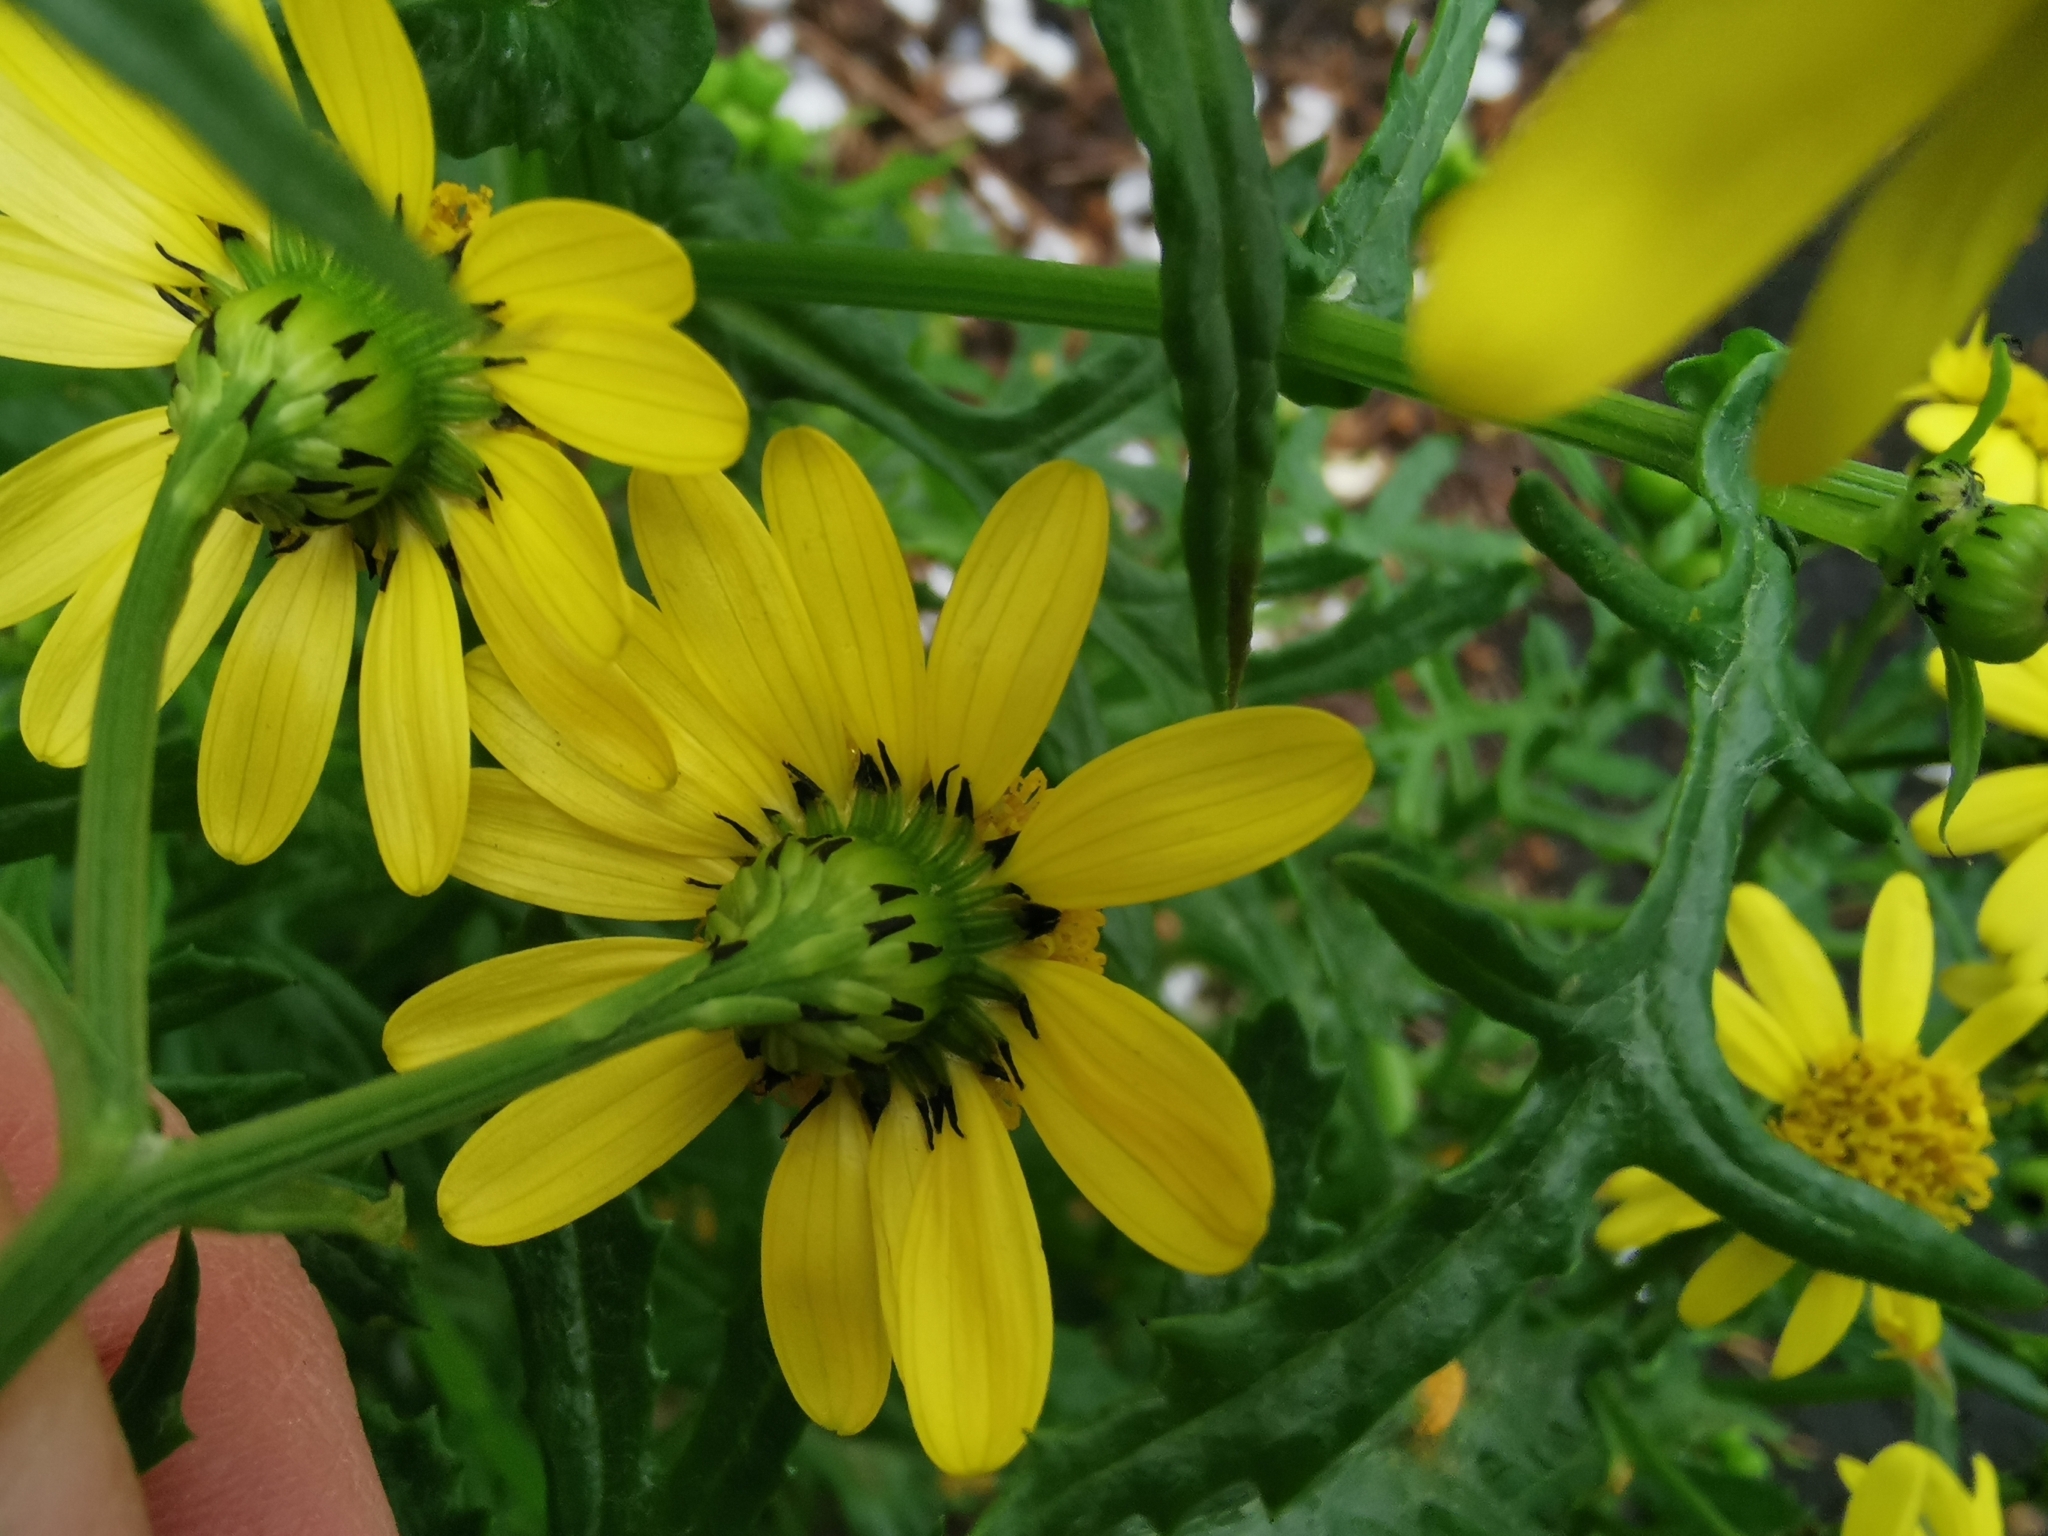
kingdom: Plantae
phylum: Tracheophyta
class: Magnoliopsida
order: Asterales
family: Asteraceae
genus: Senecio
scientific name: Senecio squalidus
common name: Oxford ragwort
